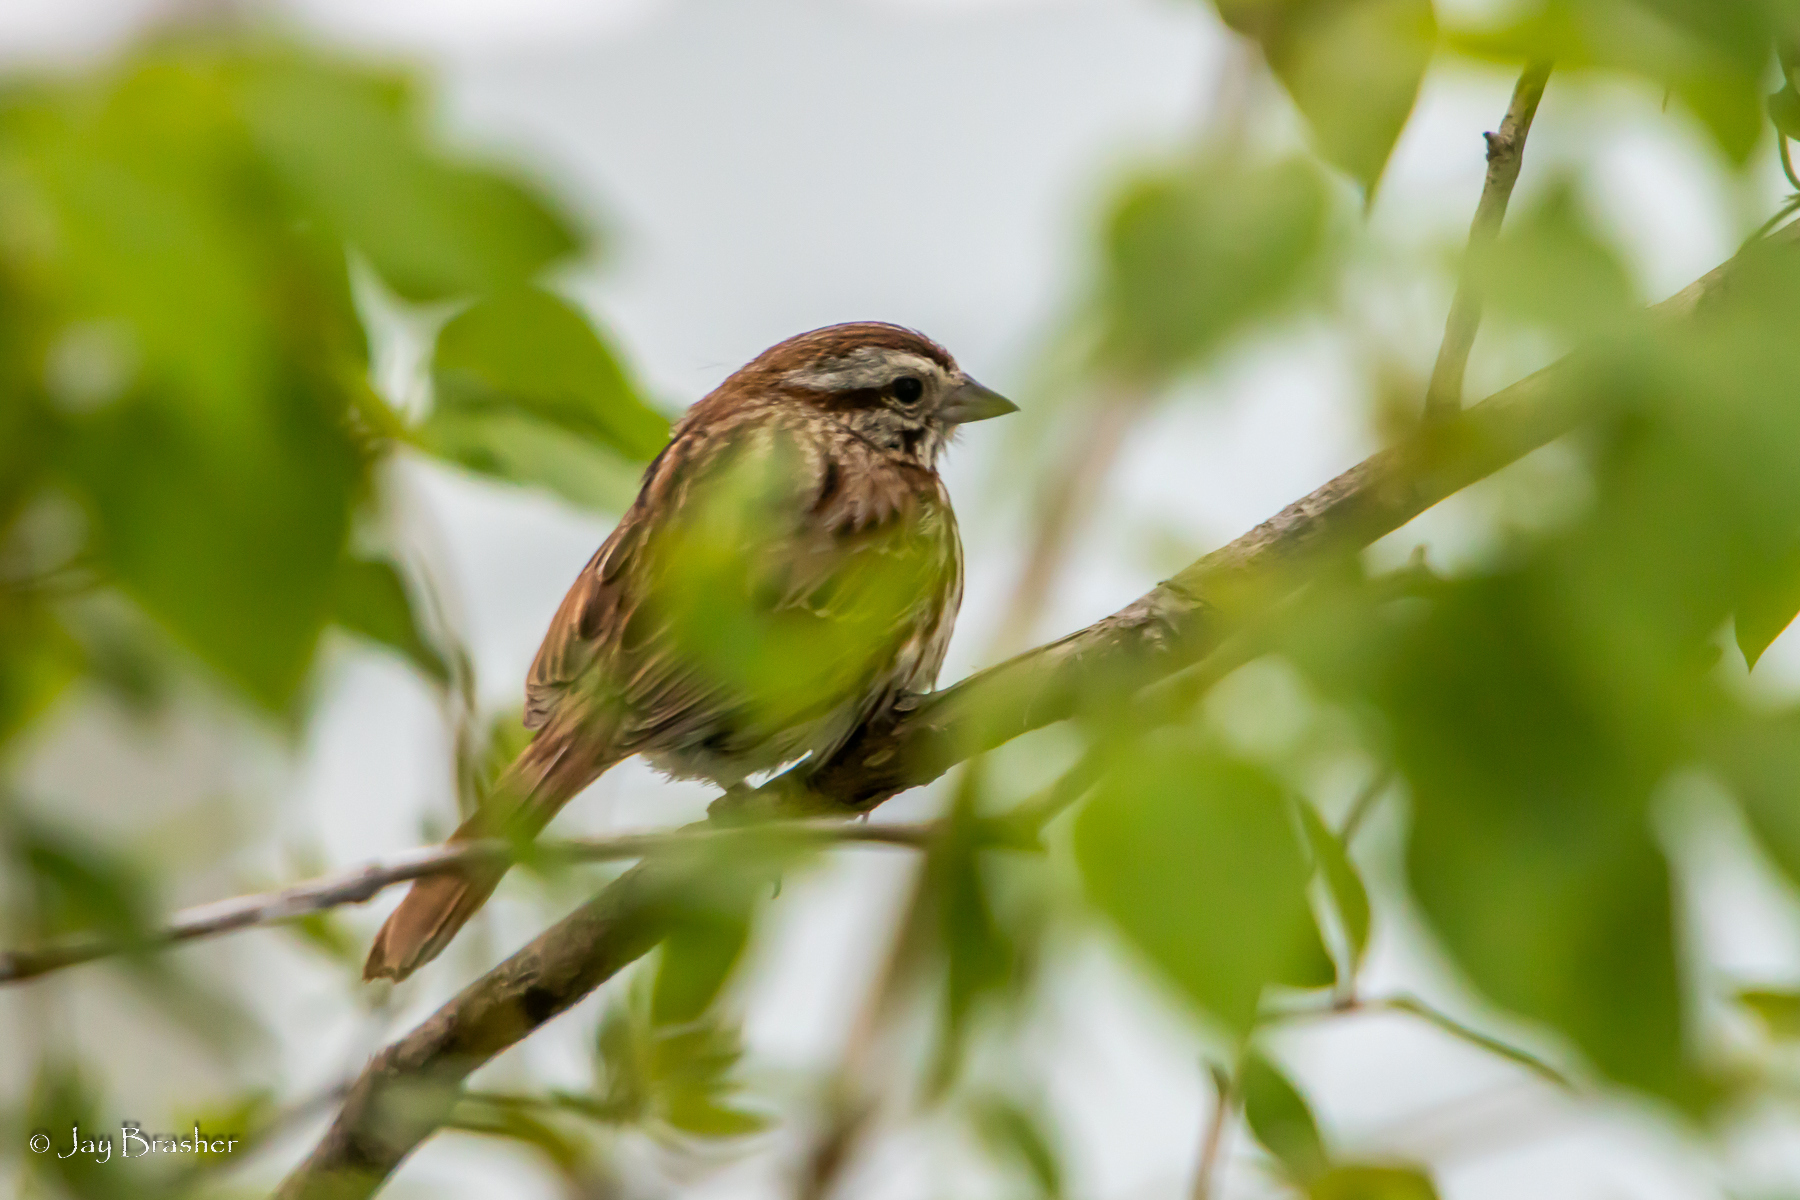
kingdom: Animalia
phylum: Chordata
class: Aves
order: Passeriformes
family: Passerellidae
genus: Melospiza
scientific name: Melospiza melodia
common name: Song sparrow
